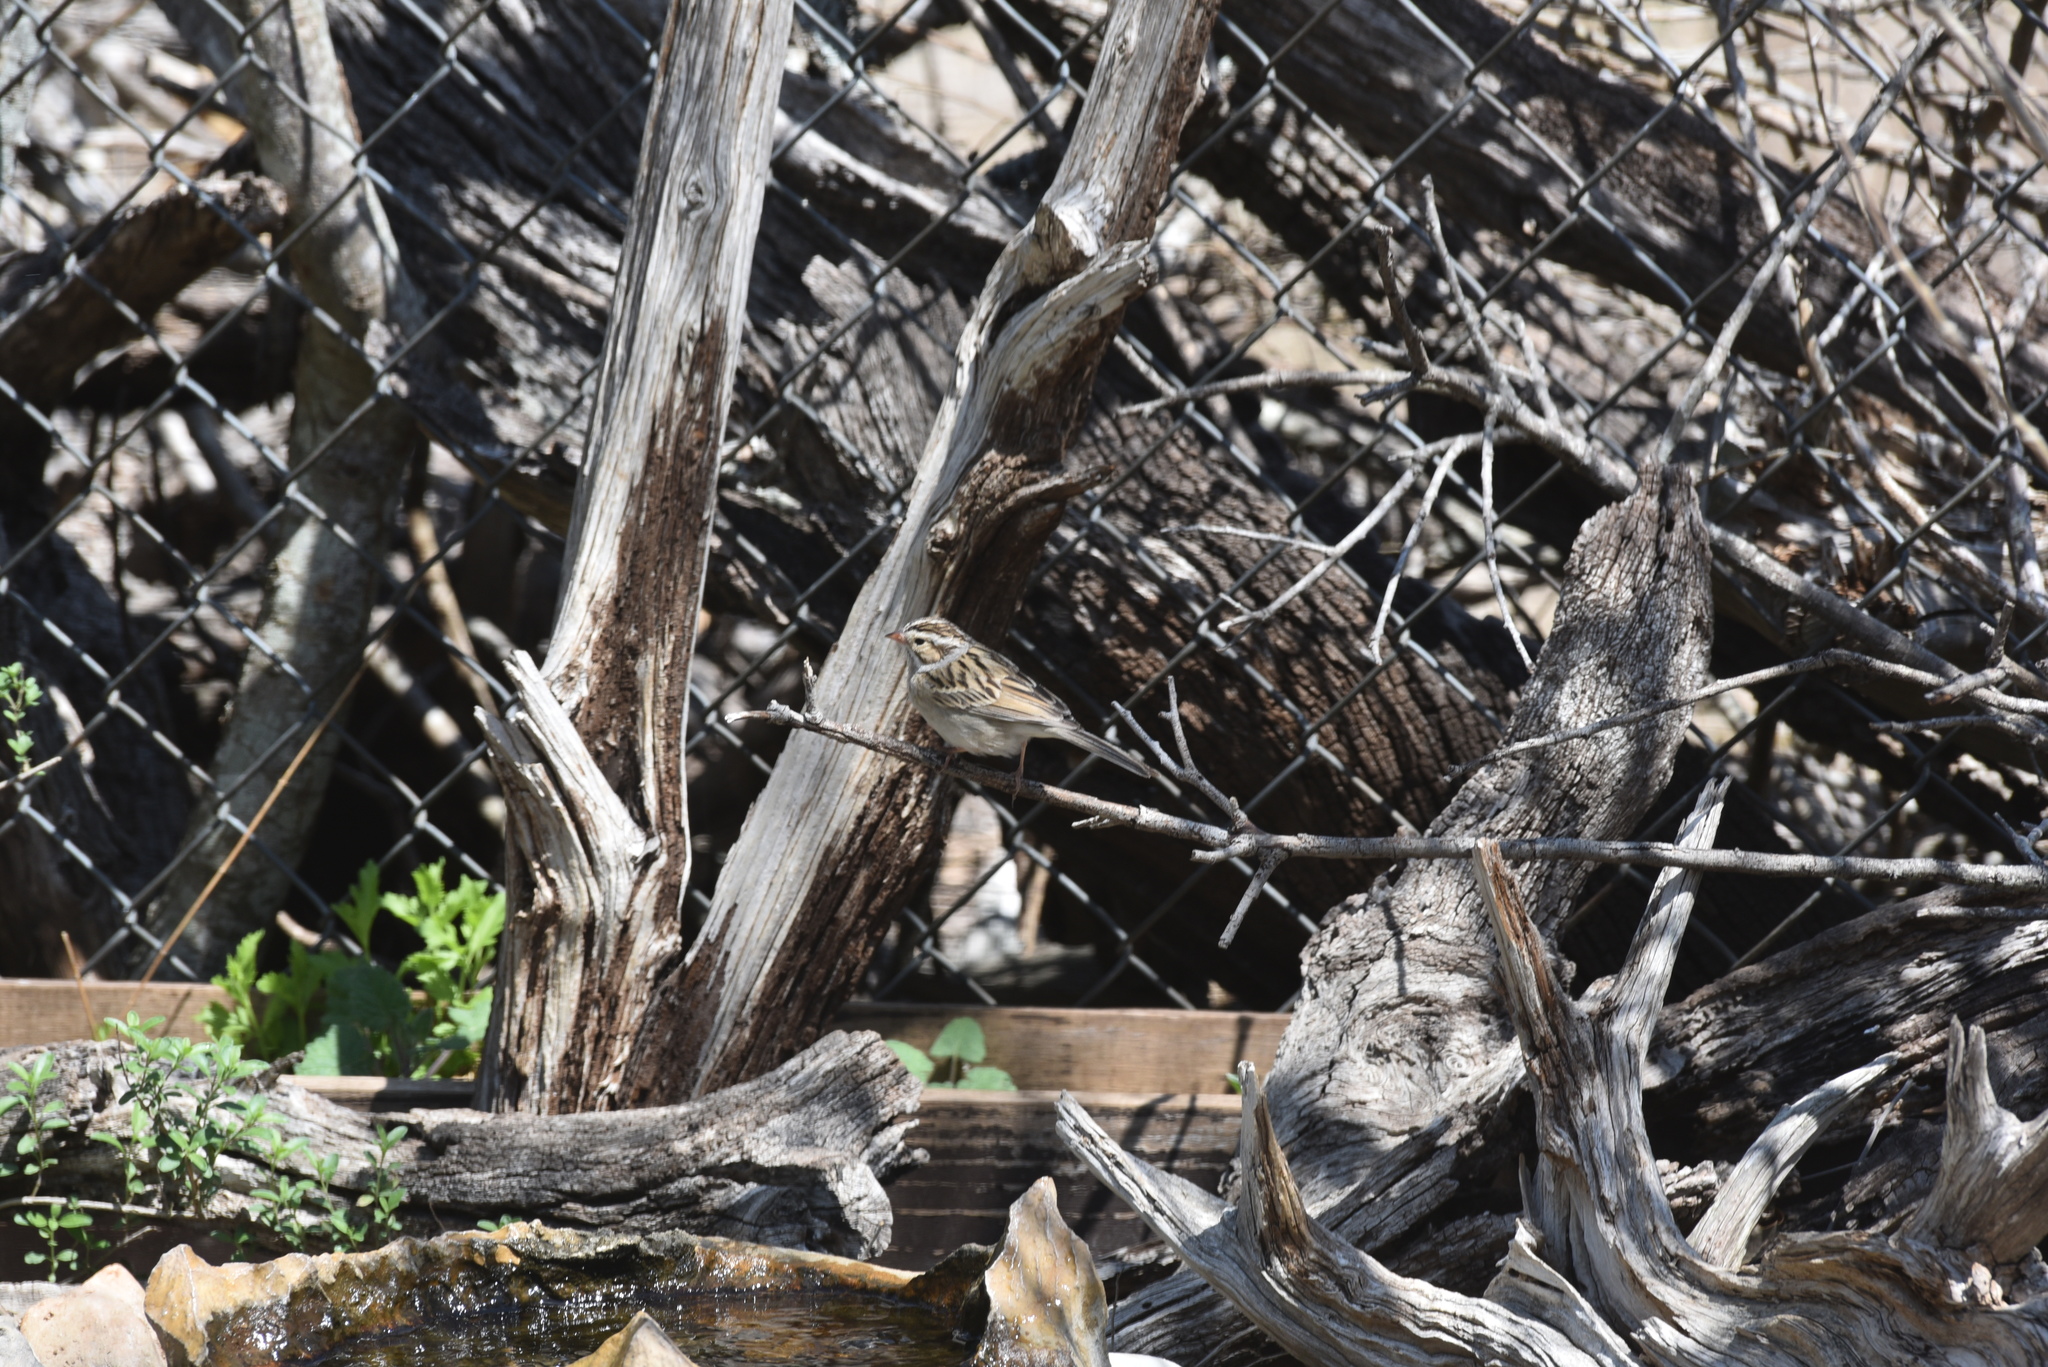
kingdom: Animalia
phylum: Chordata
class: Aves
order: Passeriformes
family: Passerellidae
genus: Spizella
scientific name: Spizella pallida
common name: Clay-colored sparrow
